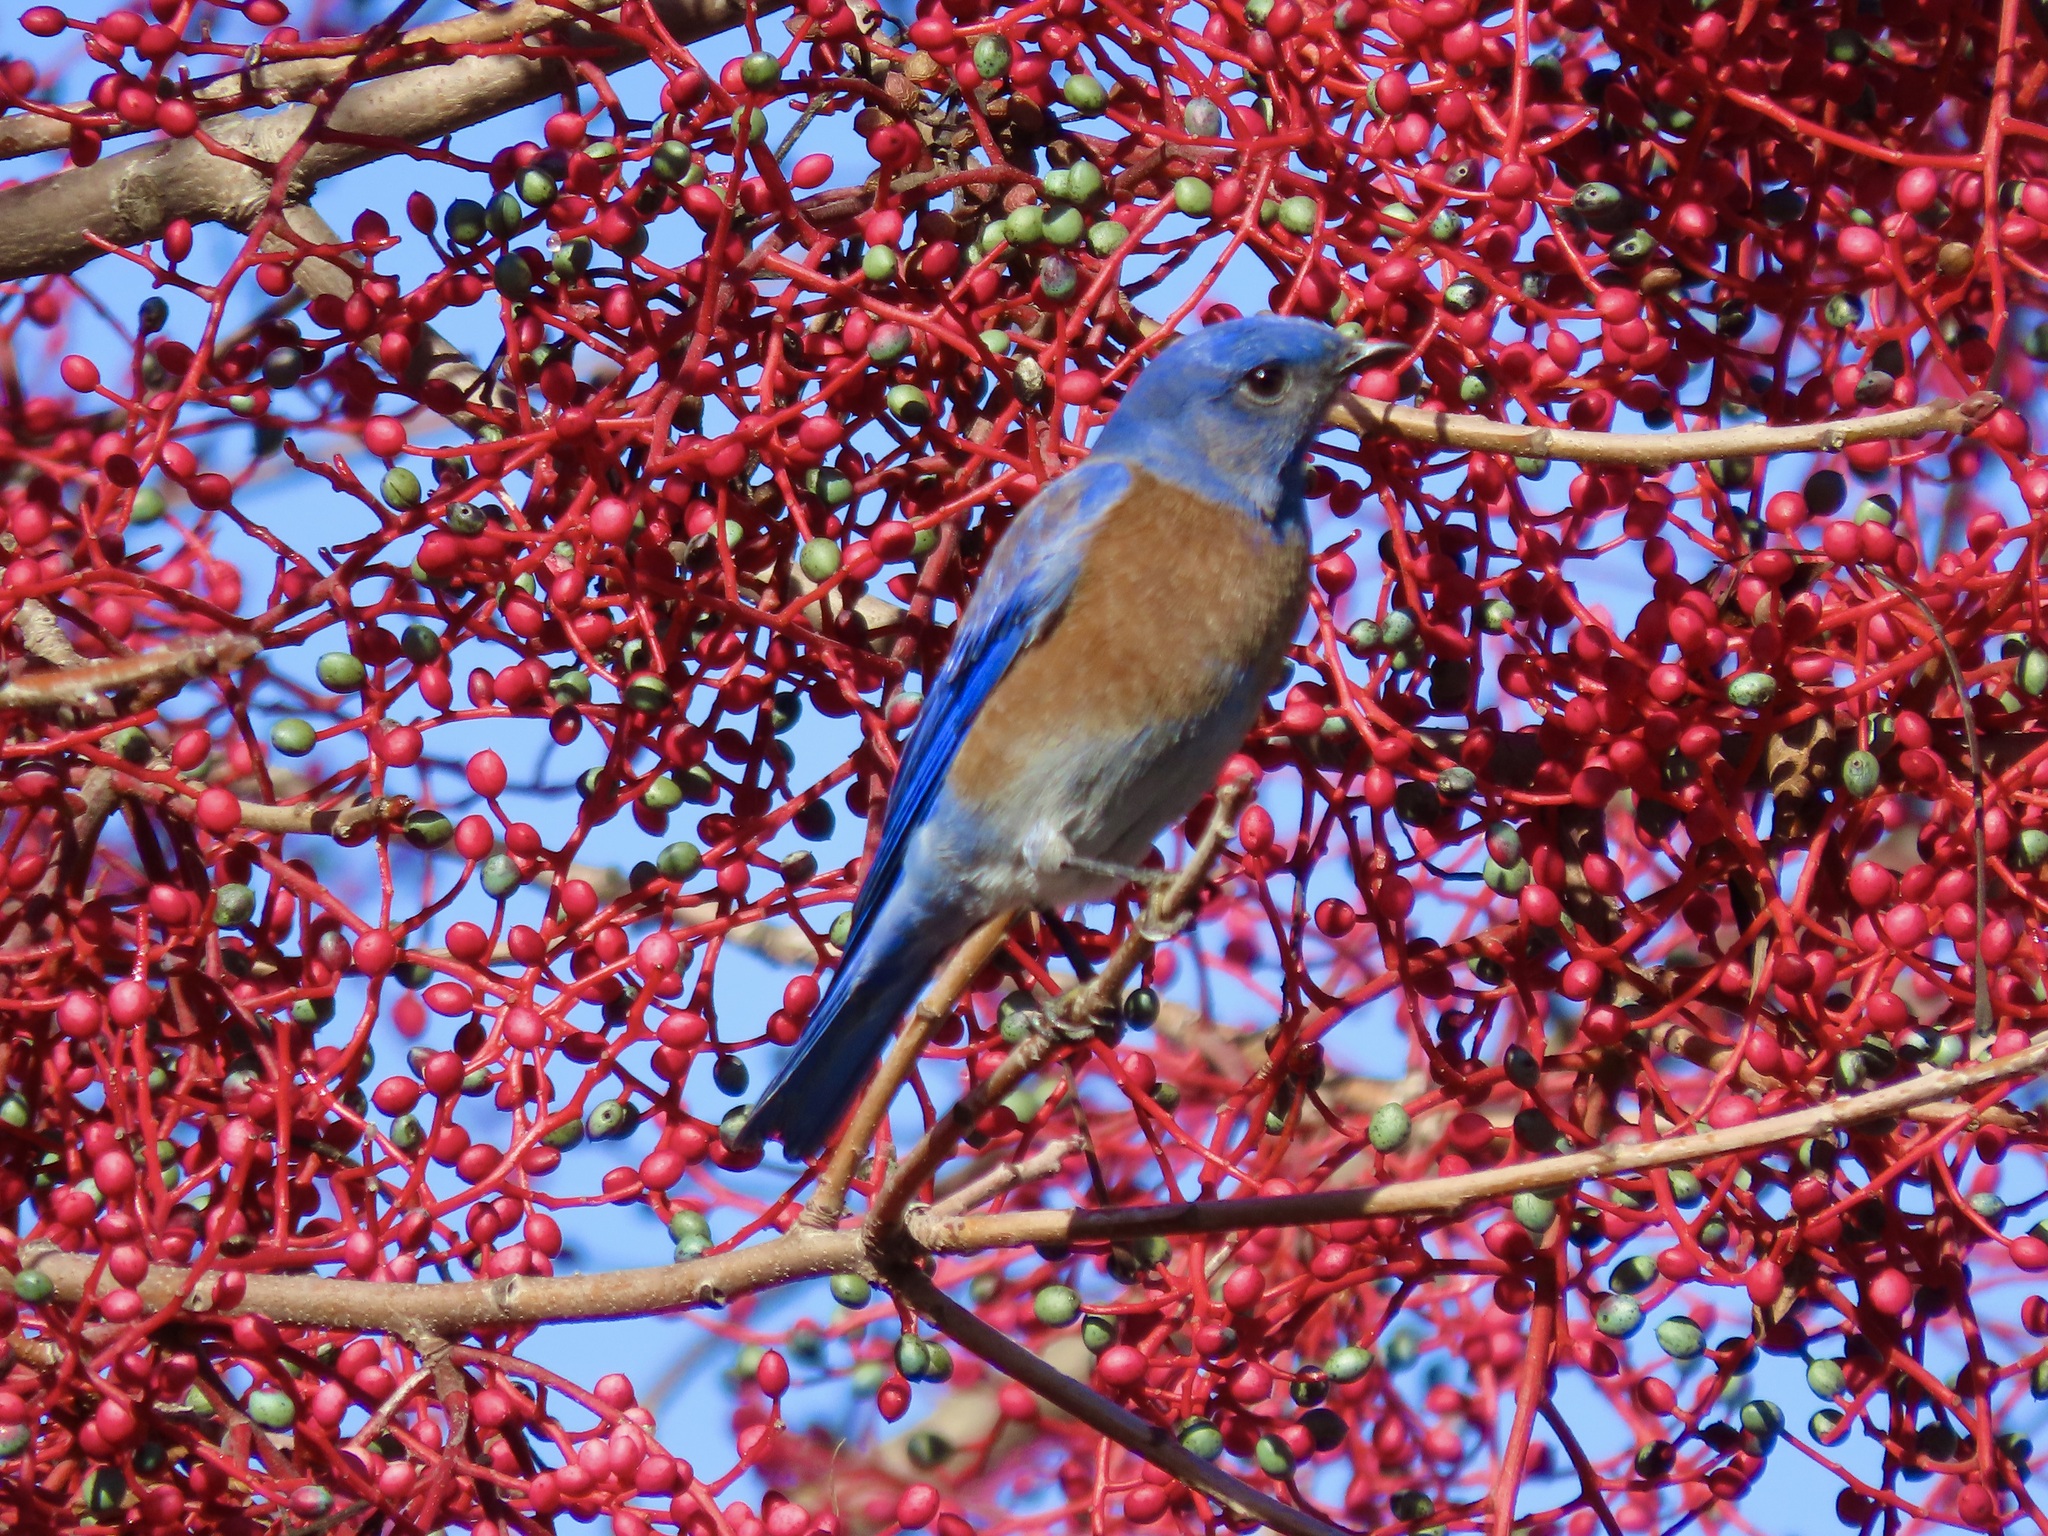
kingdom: Animalia
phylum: Chordata
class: Aves
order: Passeriformes
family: Turdidae
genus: Sialia
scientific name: Sialia mexicana
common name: Western bluebird
